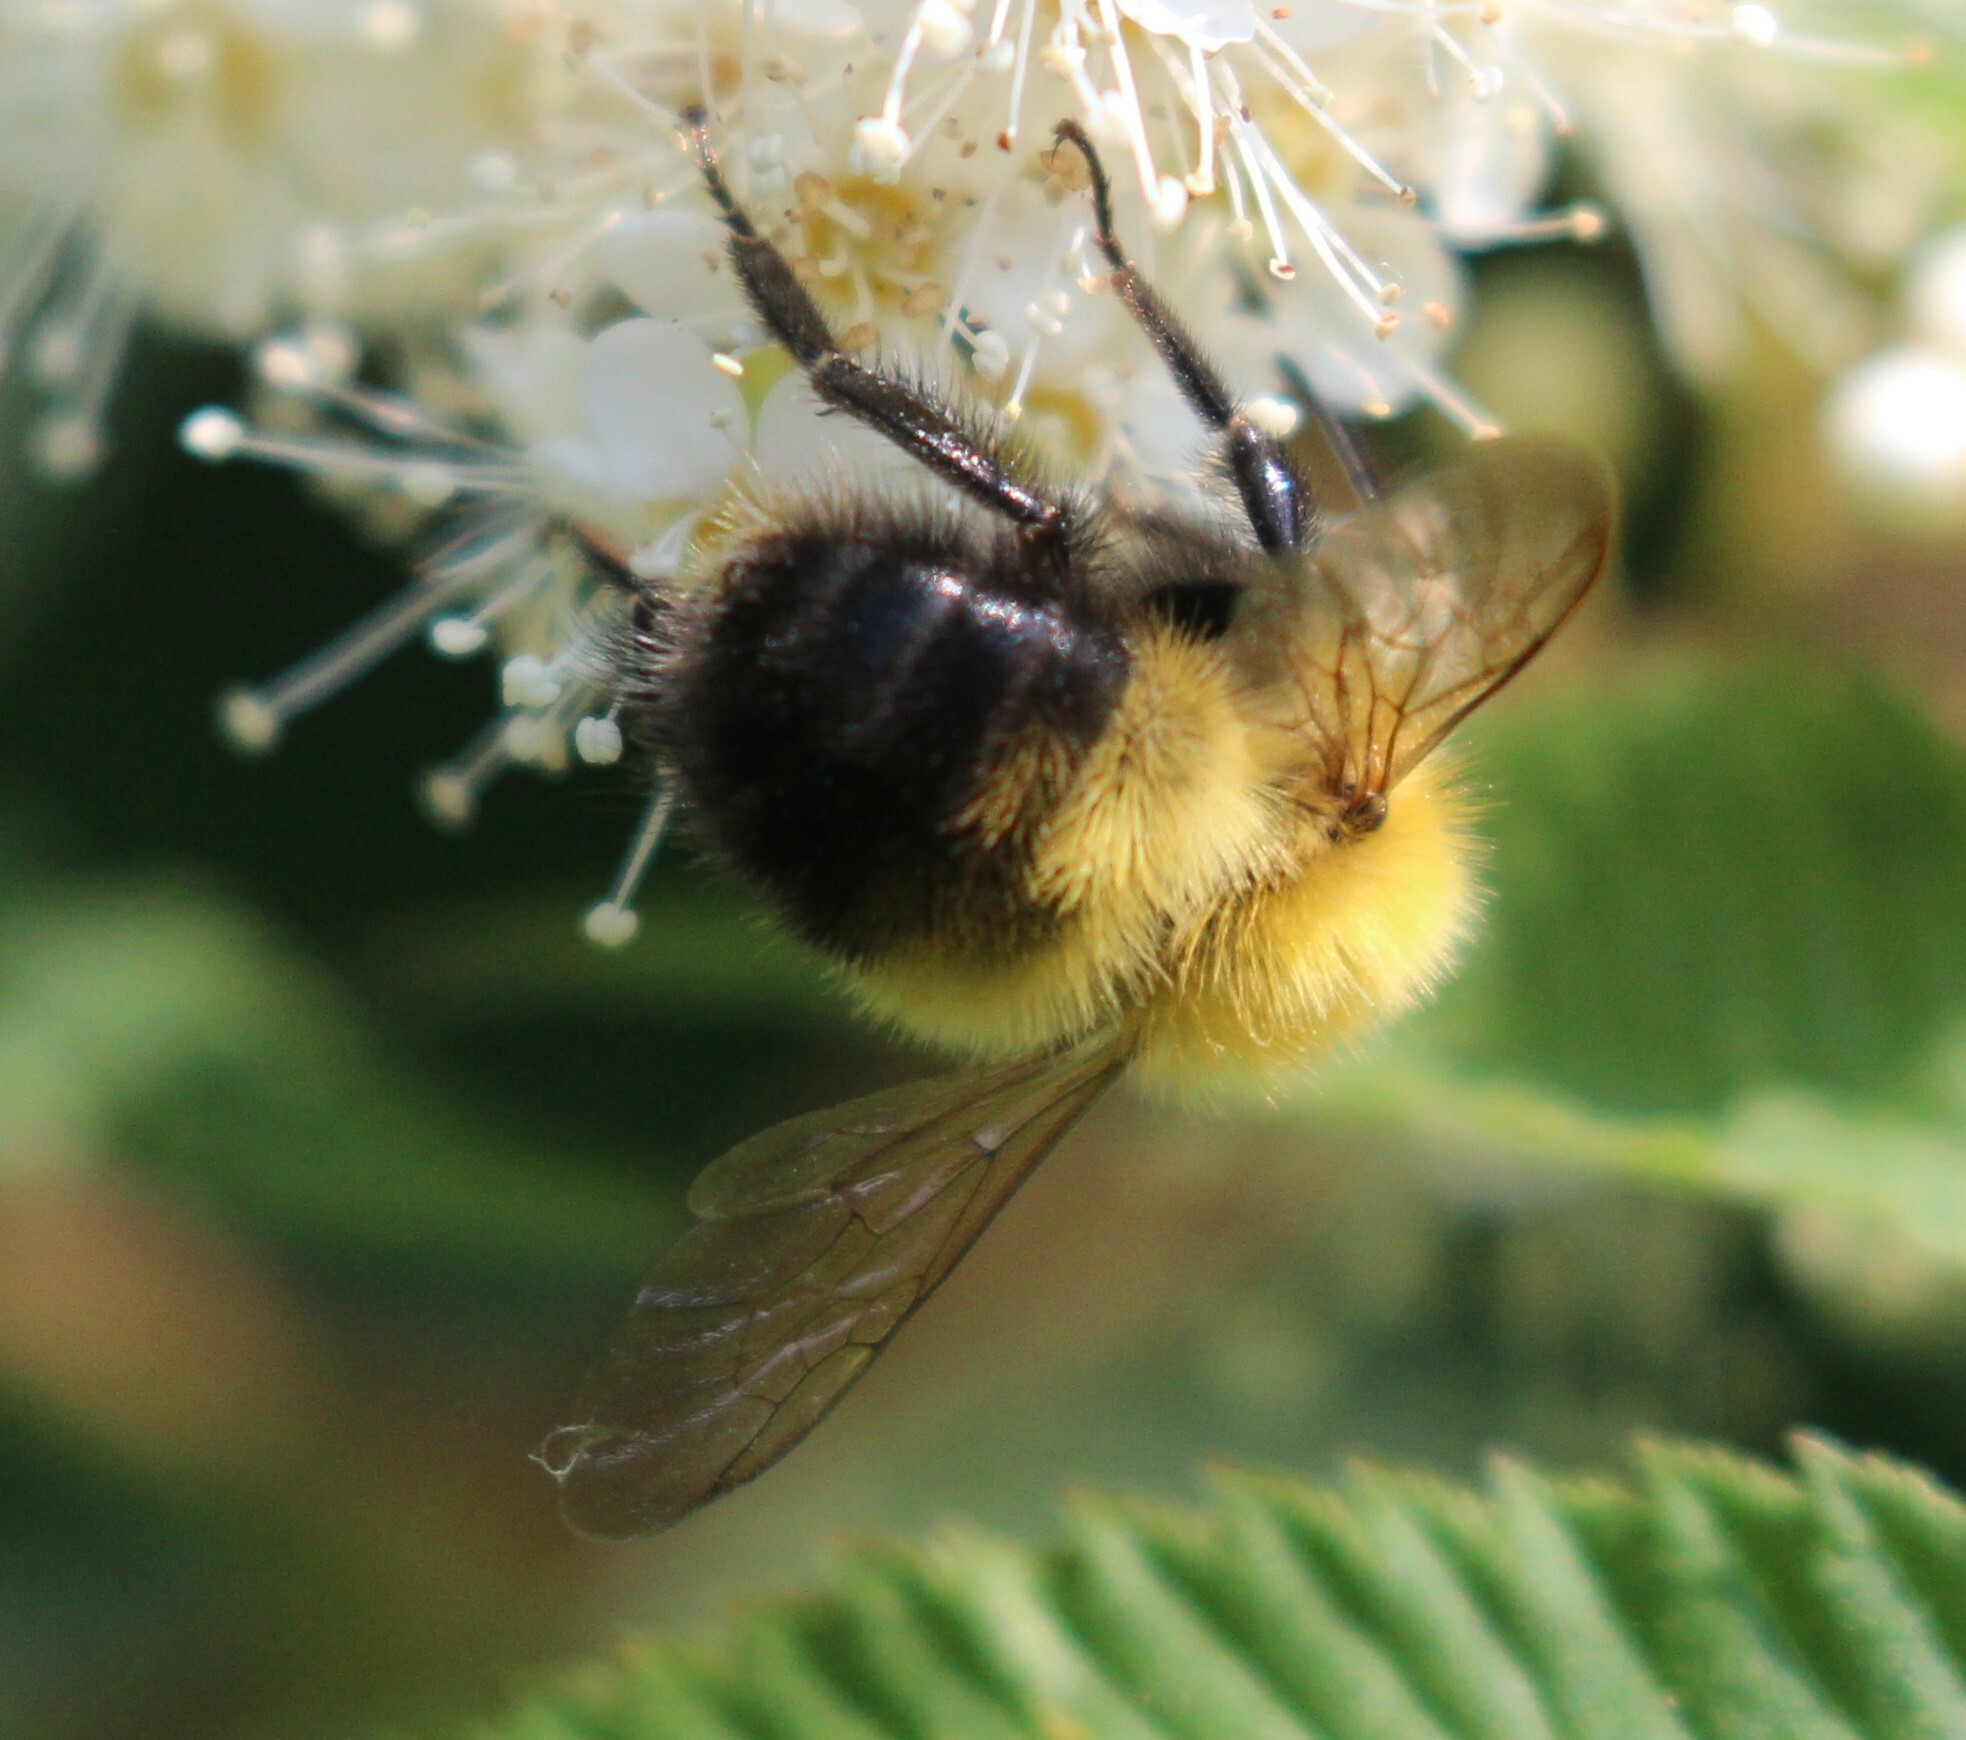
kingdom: Animalia
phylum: Arthropoda
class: Insecta
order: Hymenoptera
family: Apidae
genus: Bombus
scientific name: Bombus perplexus
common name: Confusing bumble bee
